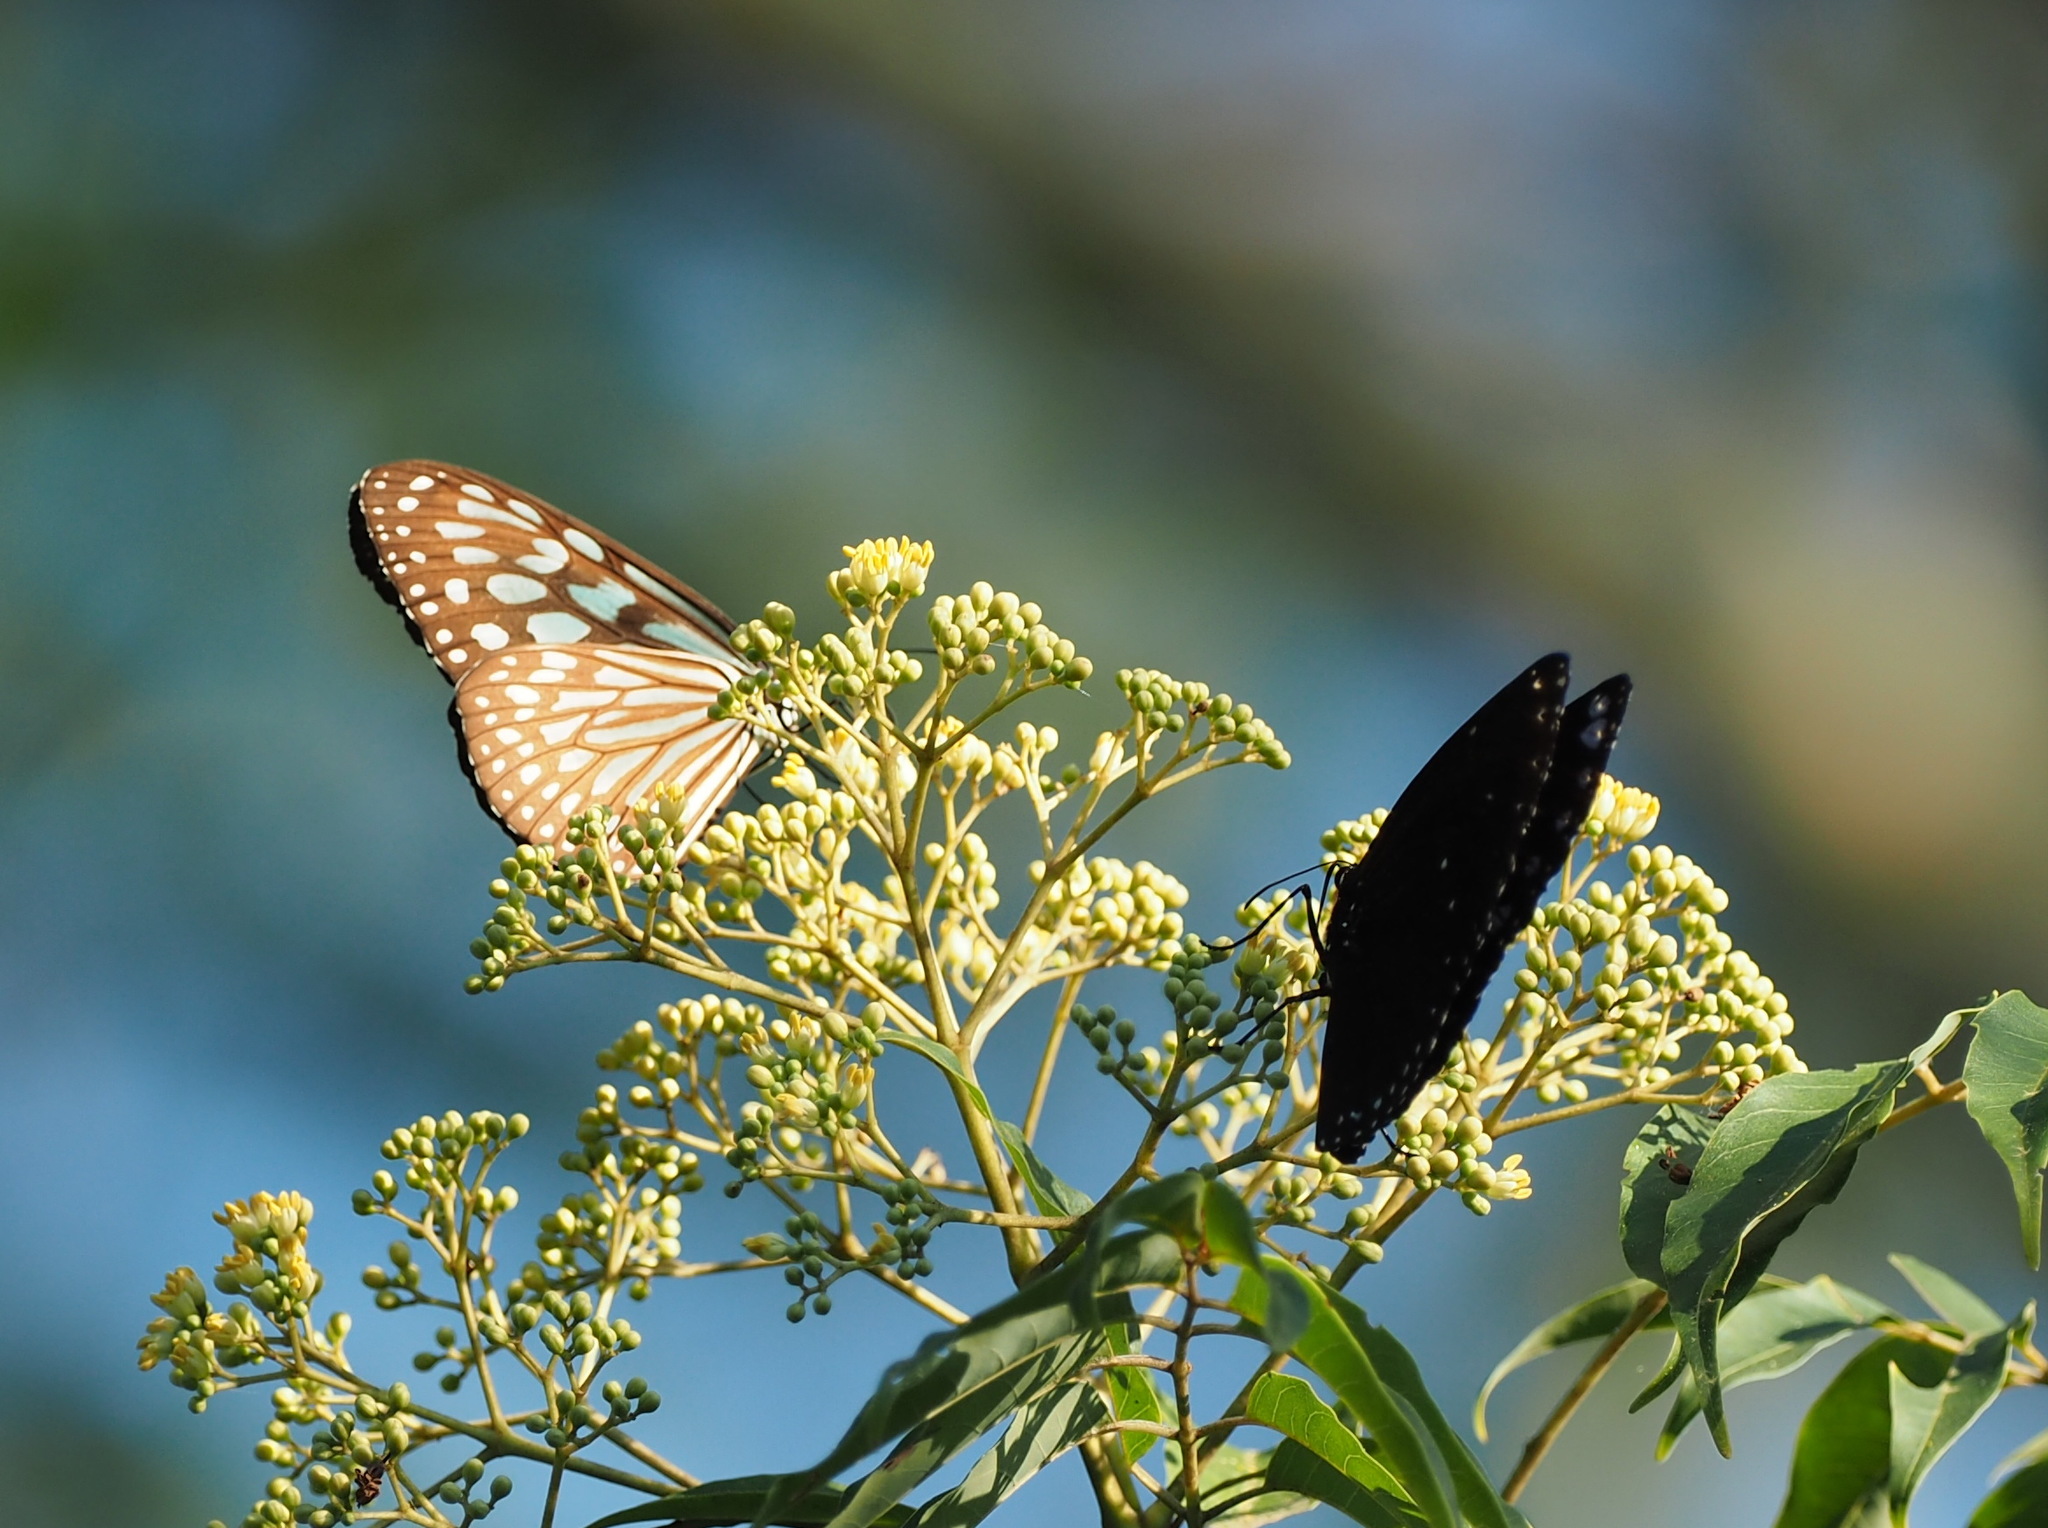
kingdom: Animalia
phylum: Arthropoda
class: Insecta
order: Lepidoptera
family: Nymphalidae
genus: Ideopsis
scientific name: Ideopsis similis
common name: Ceylon blue glassy tiger
